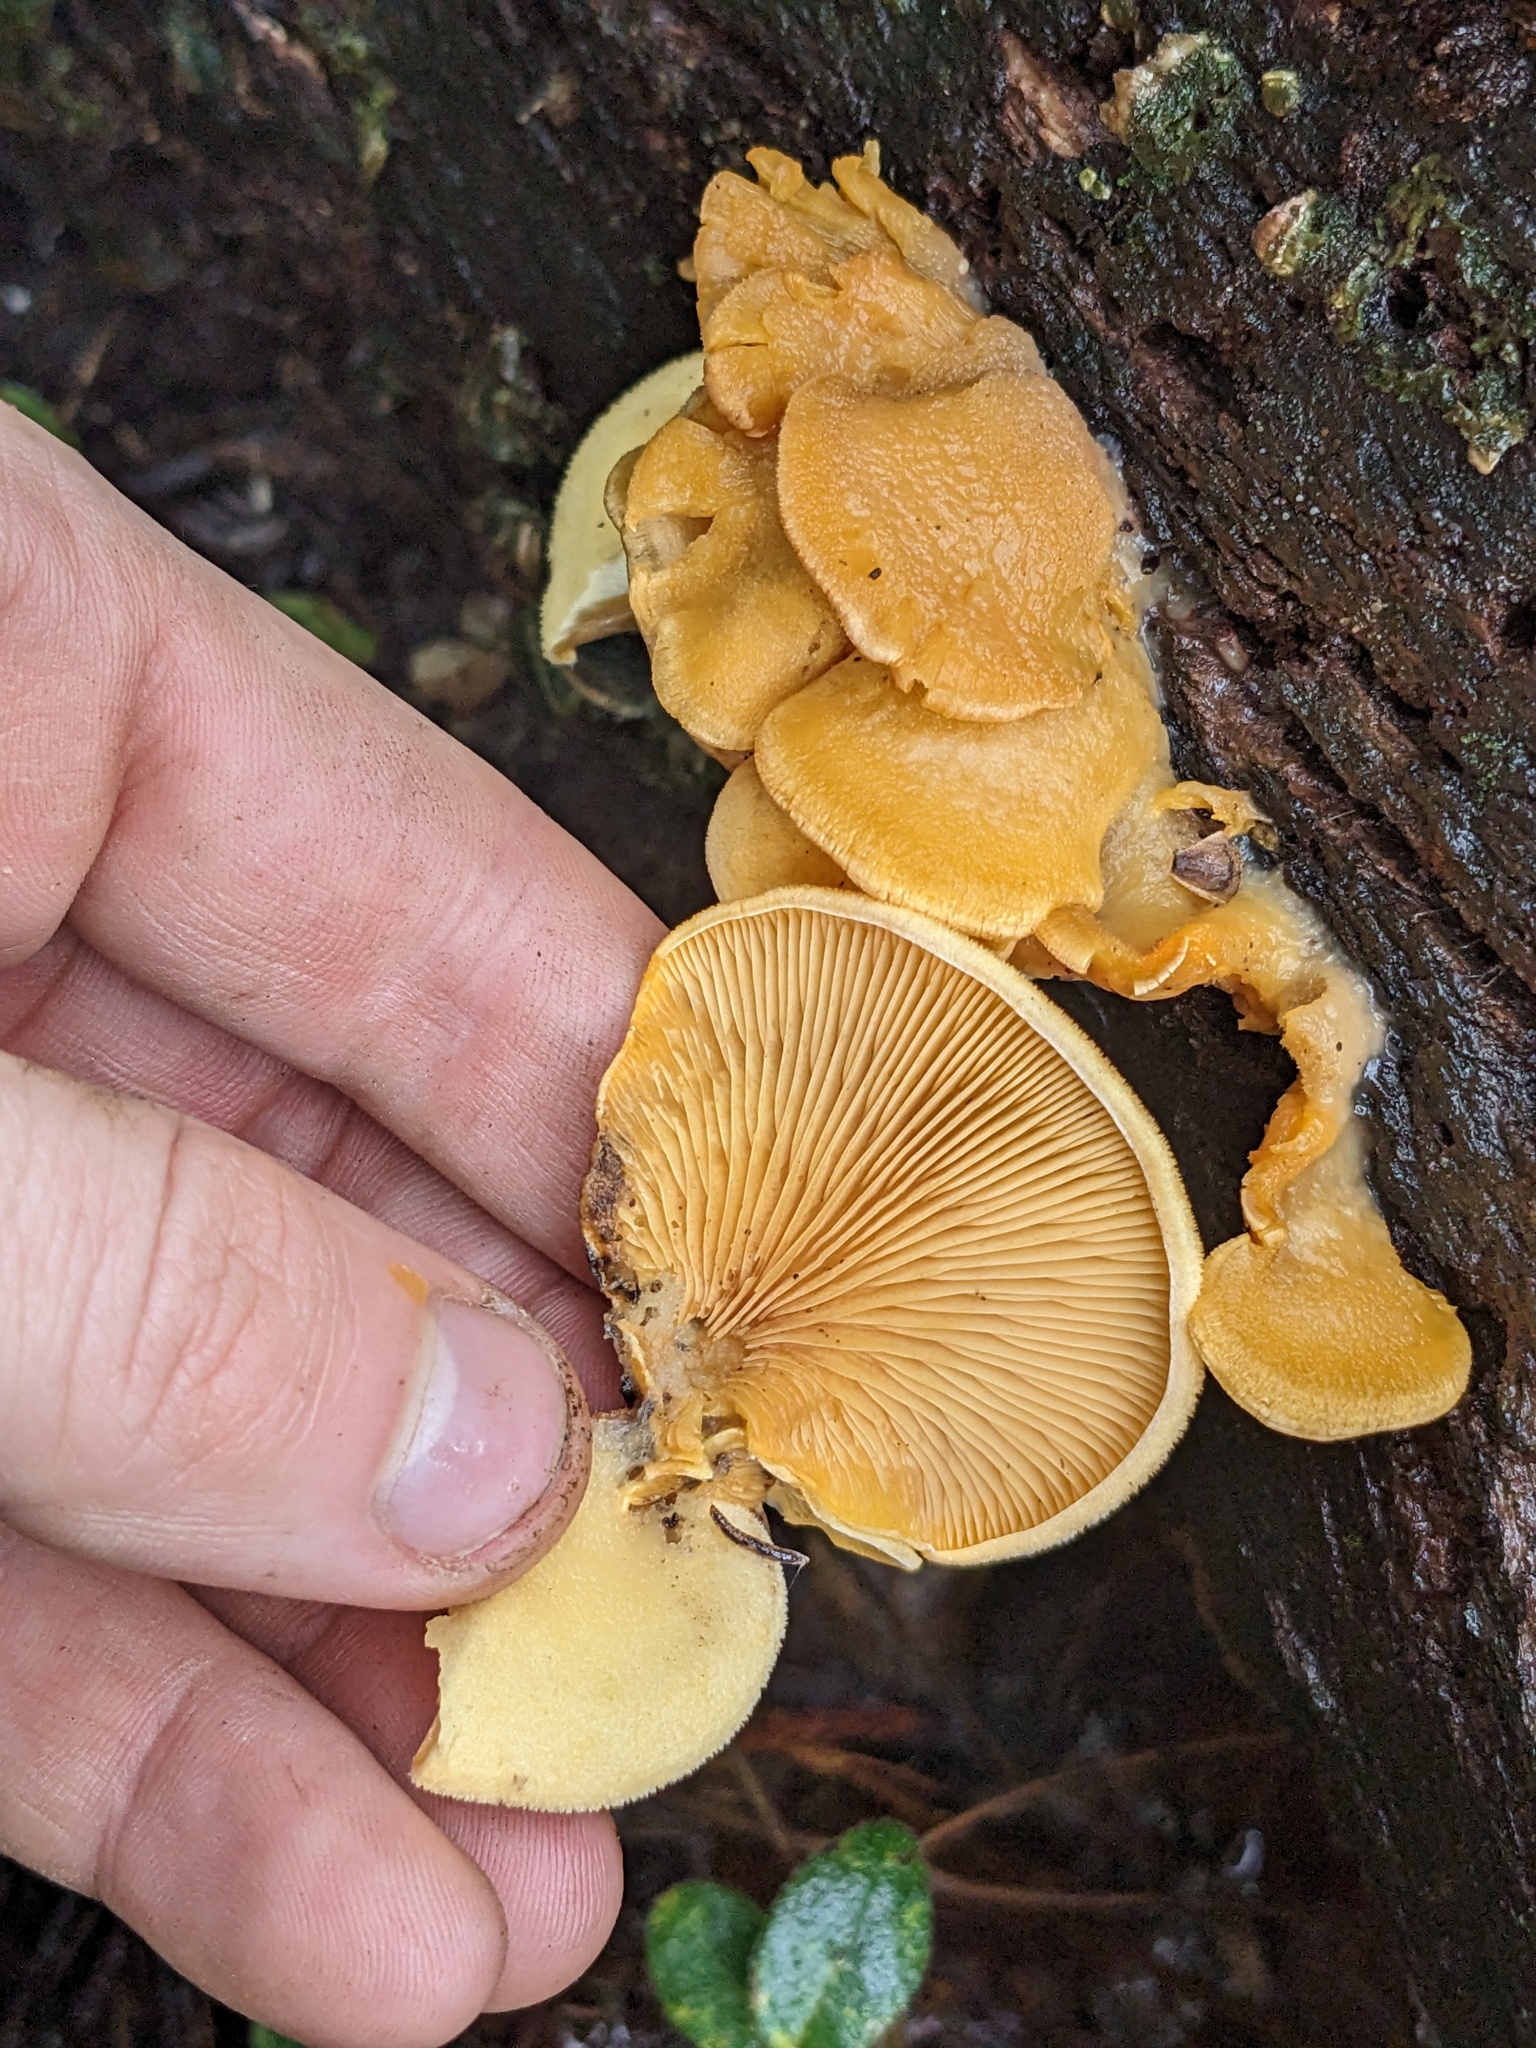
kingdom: Fungi
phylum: Basidiomycota
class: Agaricomycetes
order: Agaricales
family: Phyllotopsidaceae
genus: Phyllotopsis
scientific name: Phyllotopsis nidulans
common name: Orange mock oyster
